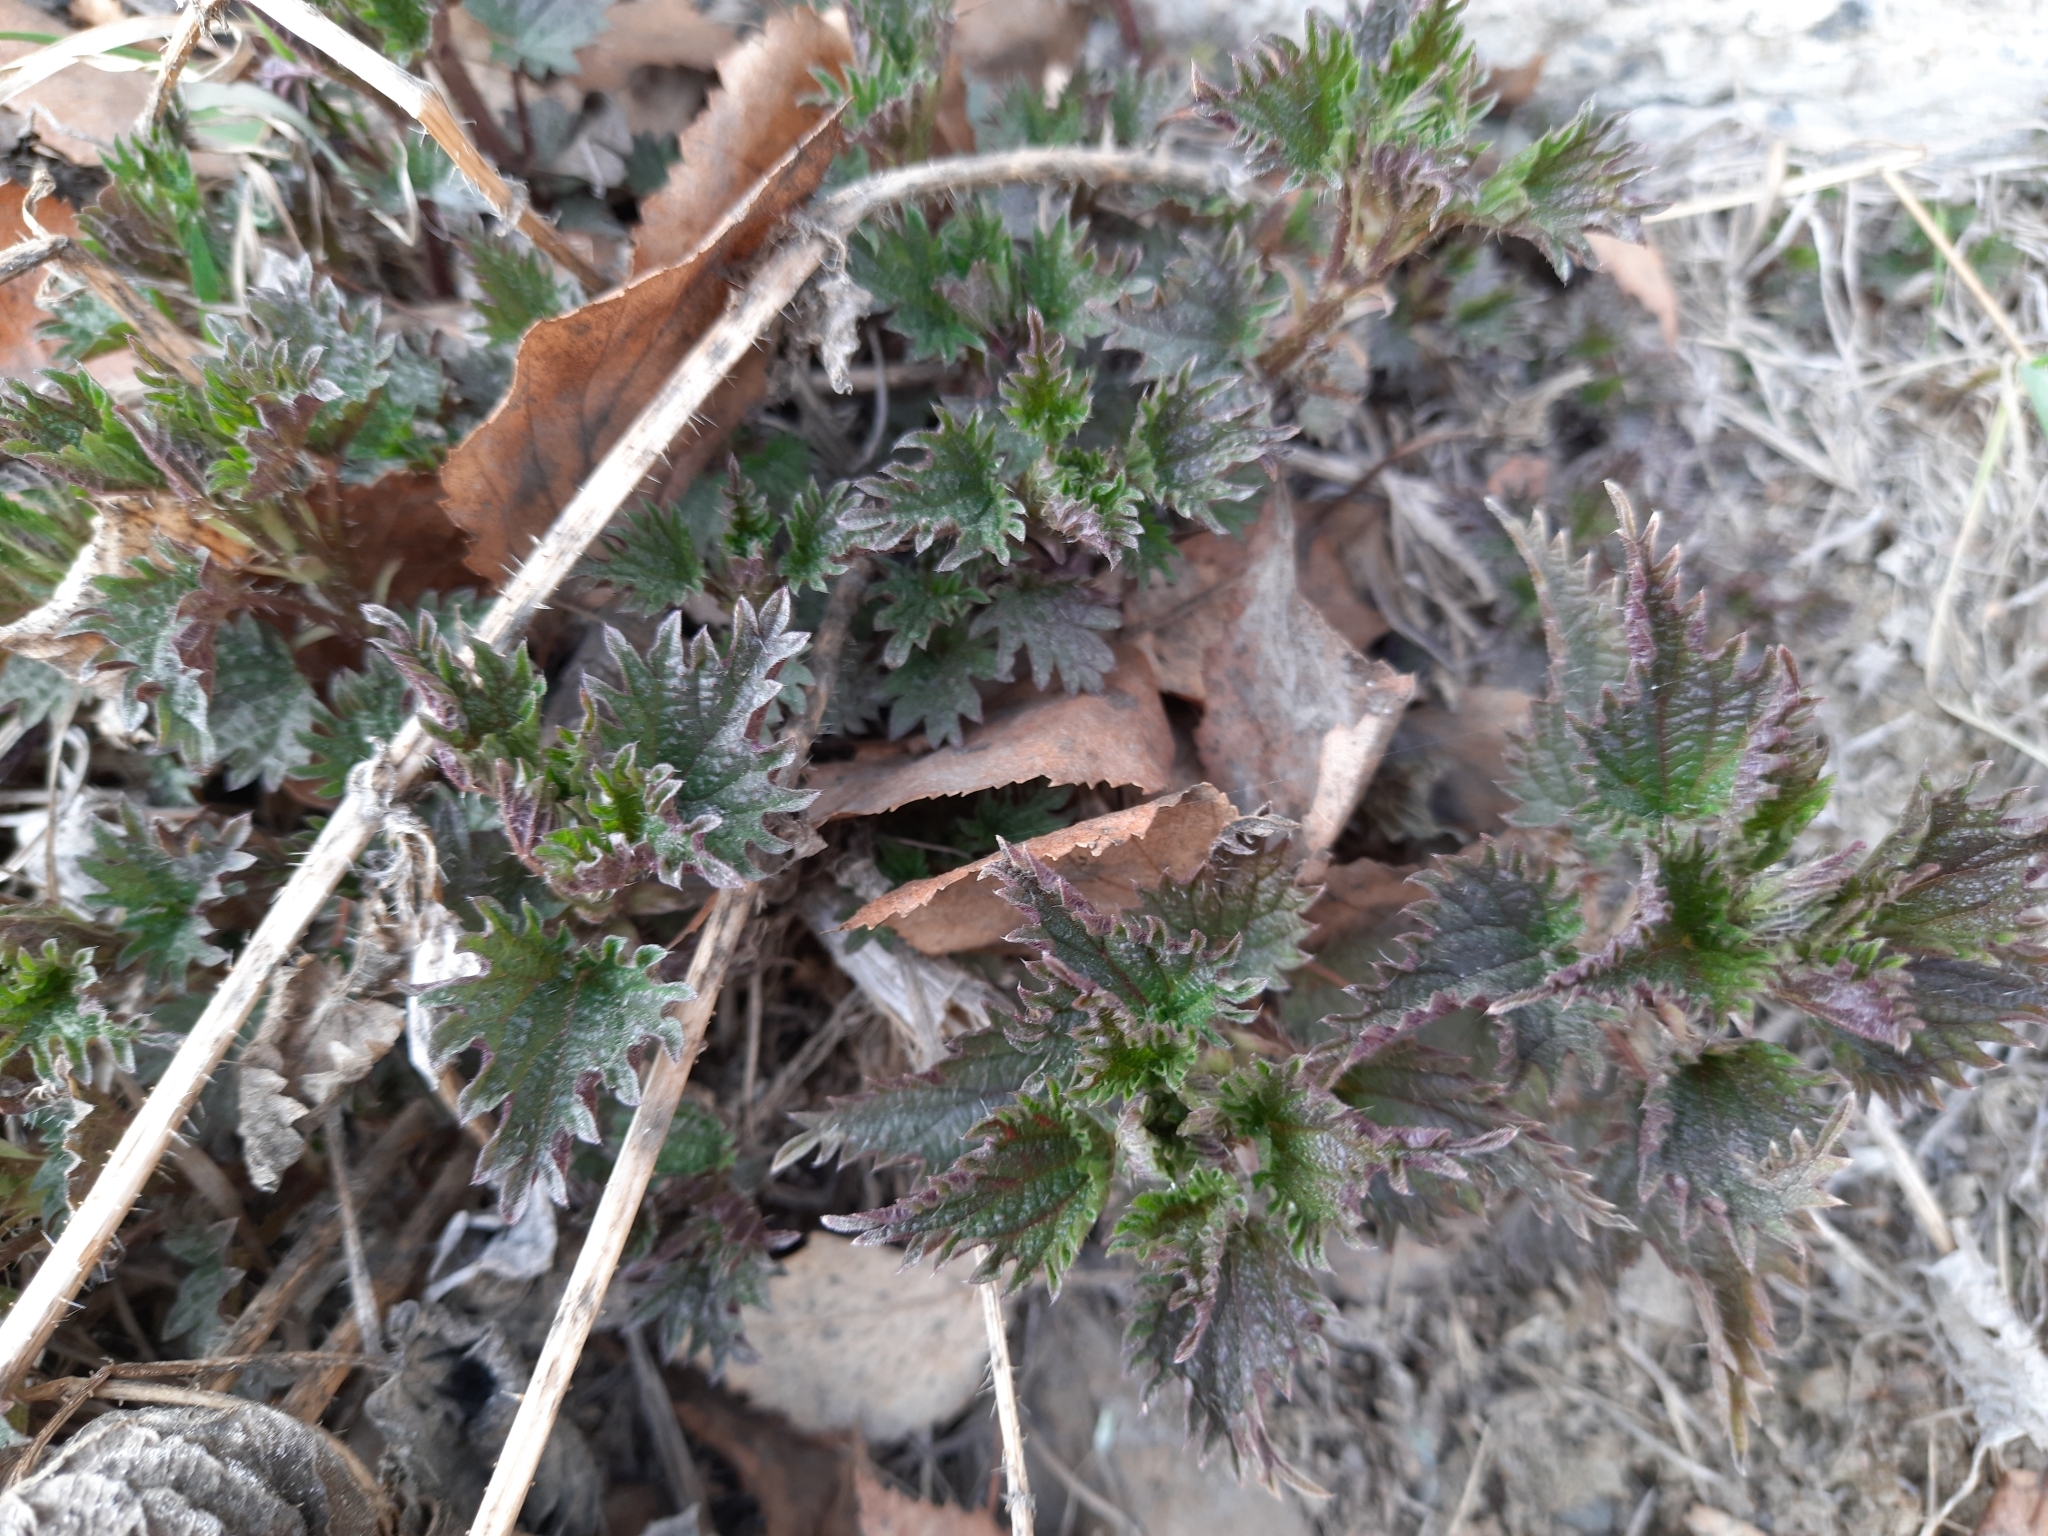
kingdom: Plantae
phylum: Tracheophyta
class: Magnoliopsida
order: Rosales
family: Urticaceae
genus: Urtica
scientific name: Urtica dioica
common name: Common nettle
